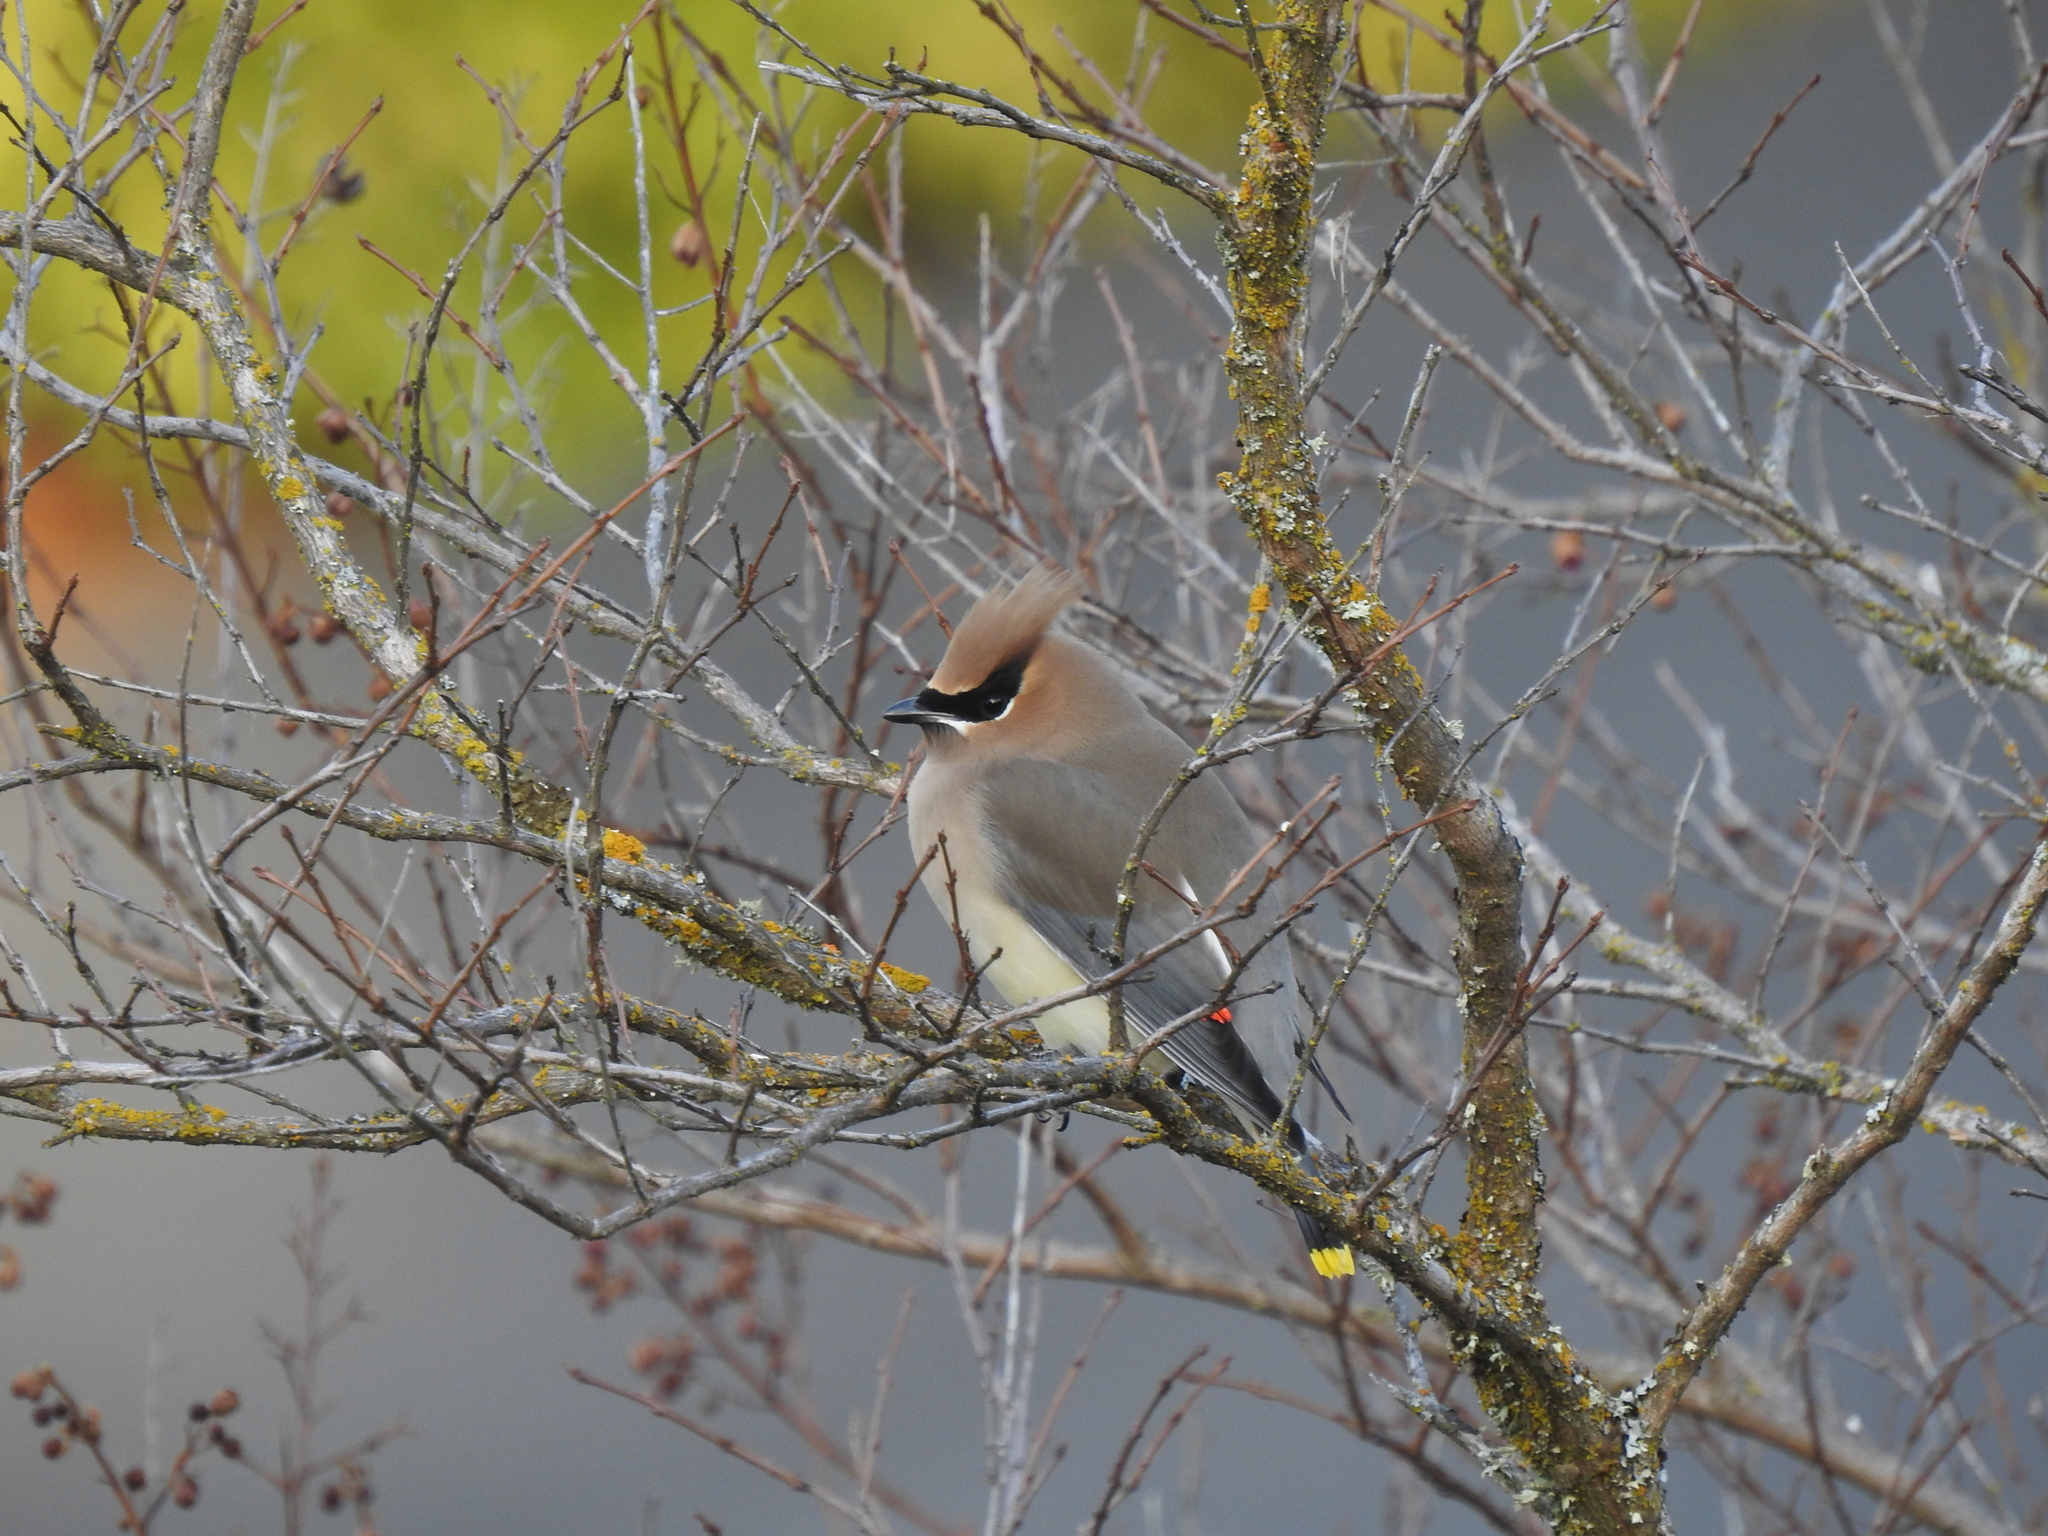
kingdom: Animalia
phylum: Chordata
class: Aves
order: Passeriformes
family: Bombycillidae
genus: Bombycilla
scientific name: Bombycilla cedrorum
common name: Cedar waxwing
